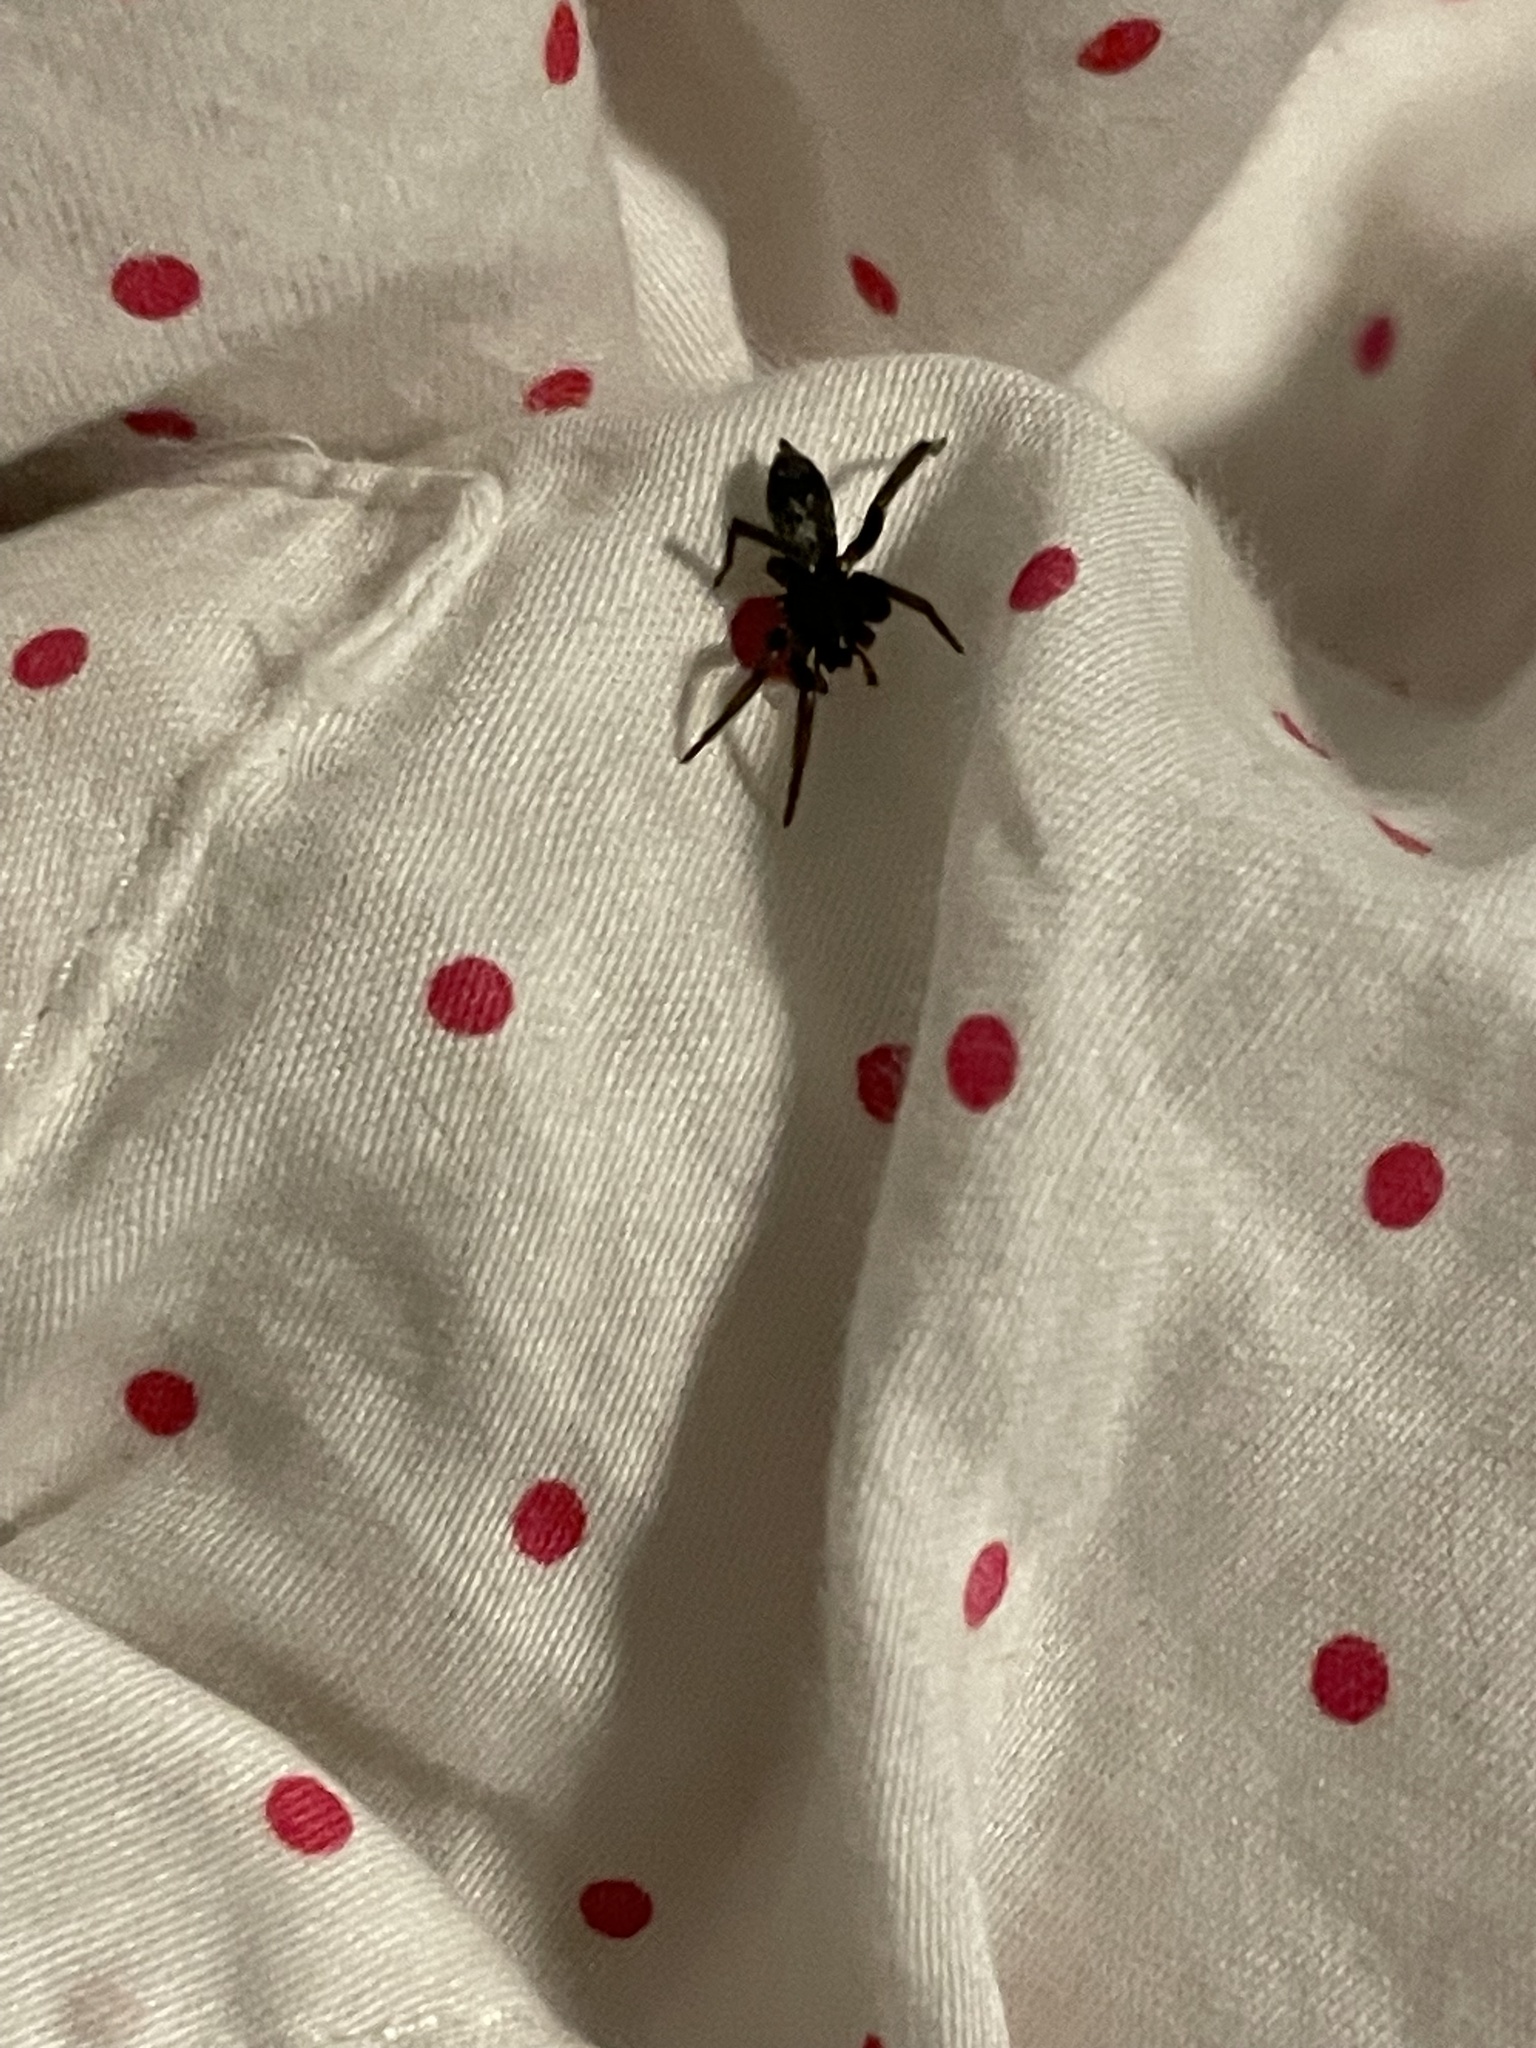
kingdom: Animalia
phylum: Arthropoda
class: Arachnida
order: Araneae
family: Gnaphosidae
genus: Herpyllus
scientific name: Herpyllus ecclesiasticus
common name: Eastern parson spider
